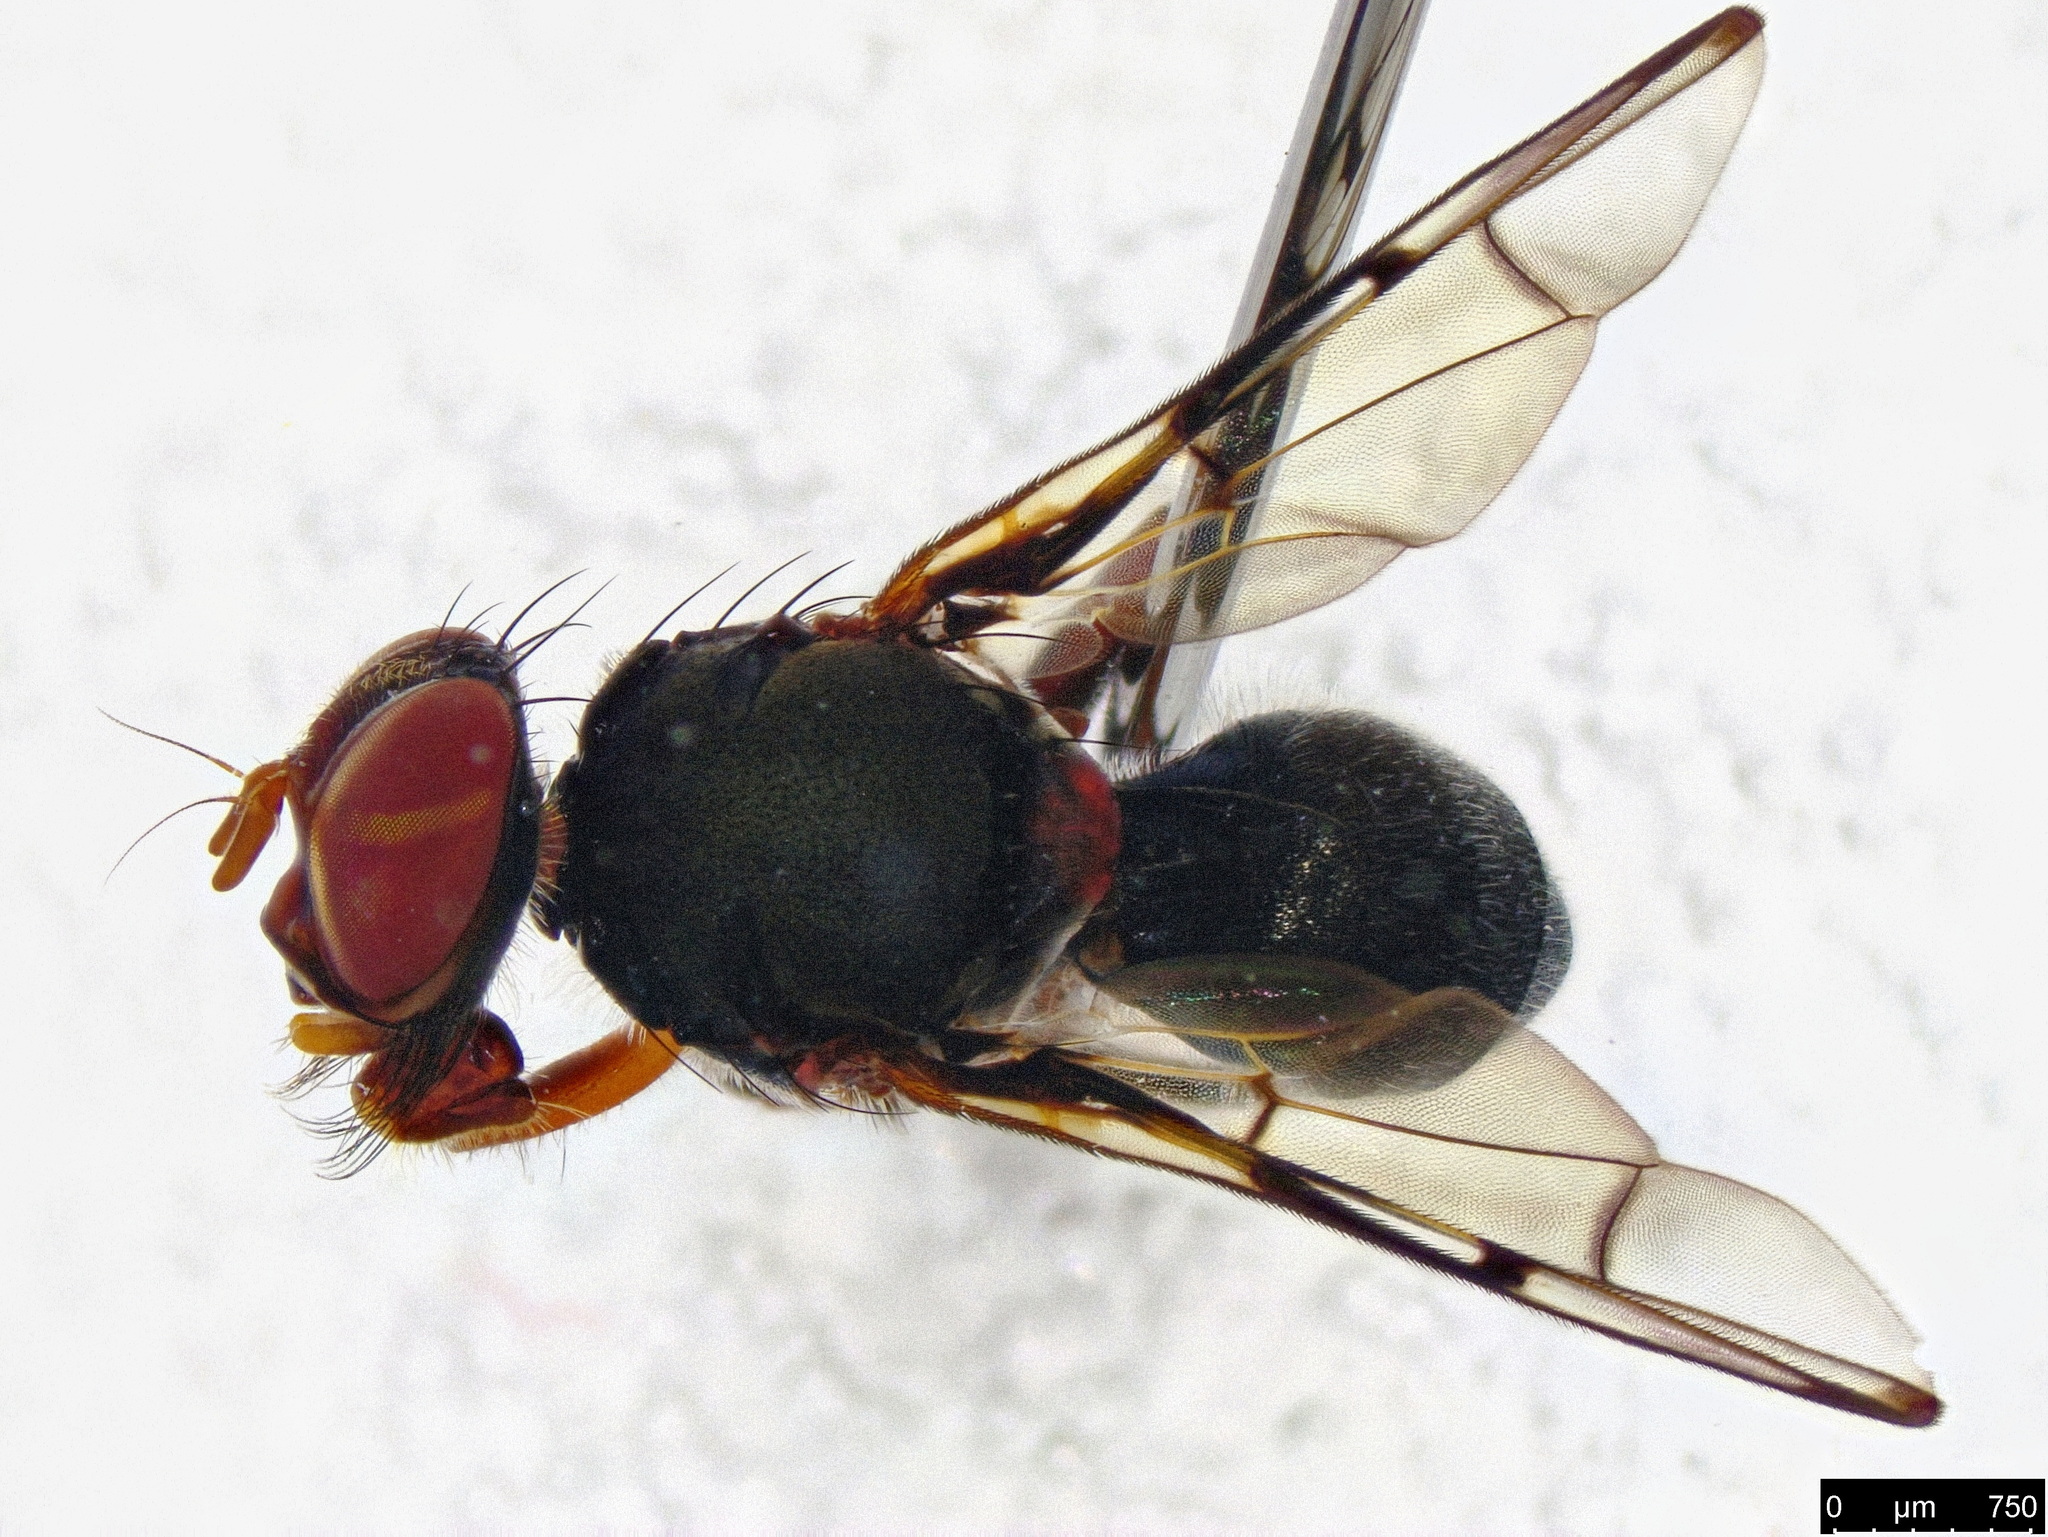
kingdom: Animalia
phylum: Arthropoda
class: Insecta
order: Diptera
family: Platystomatidae
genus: Pogonortalis
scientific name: Pogonortalis doclea
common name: Boatman fly
